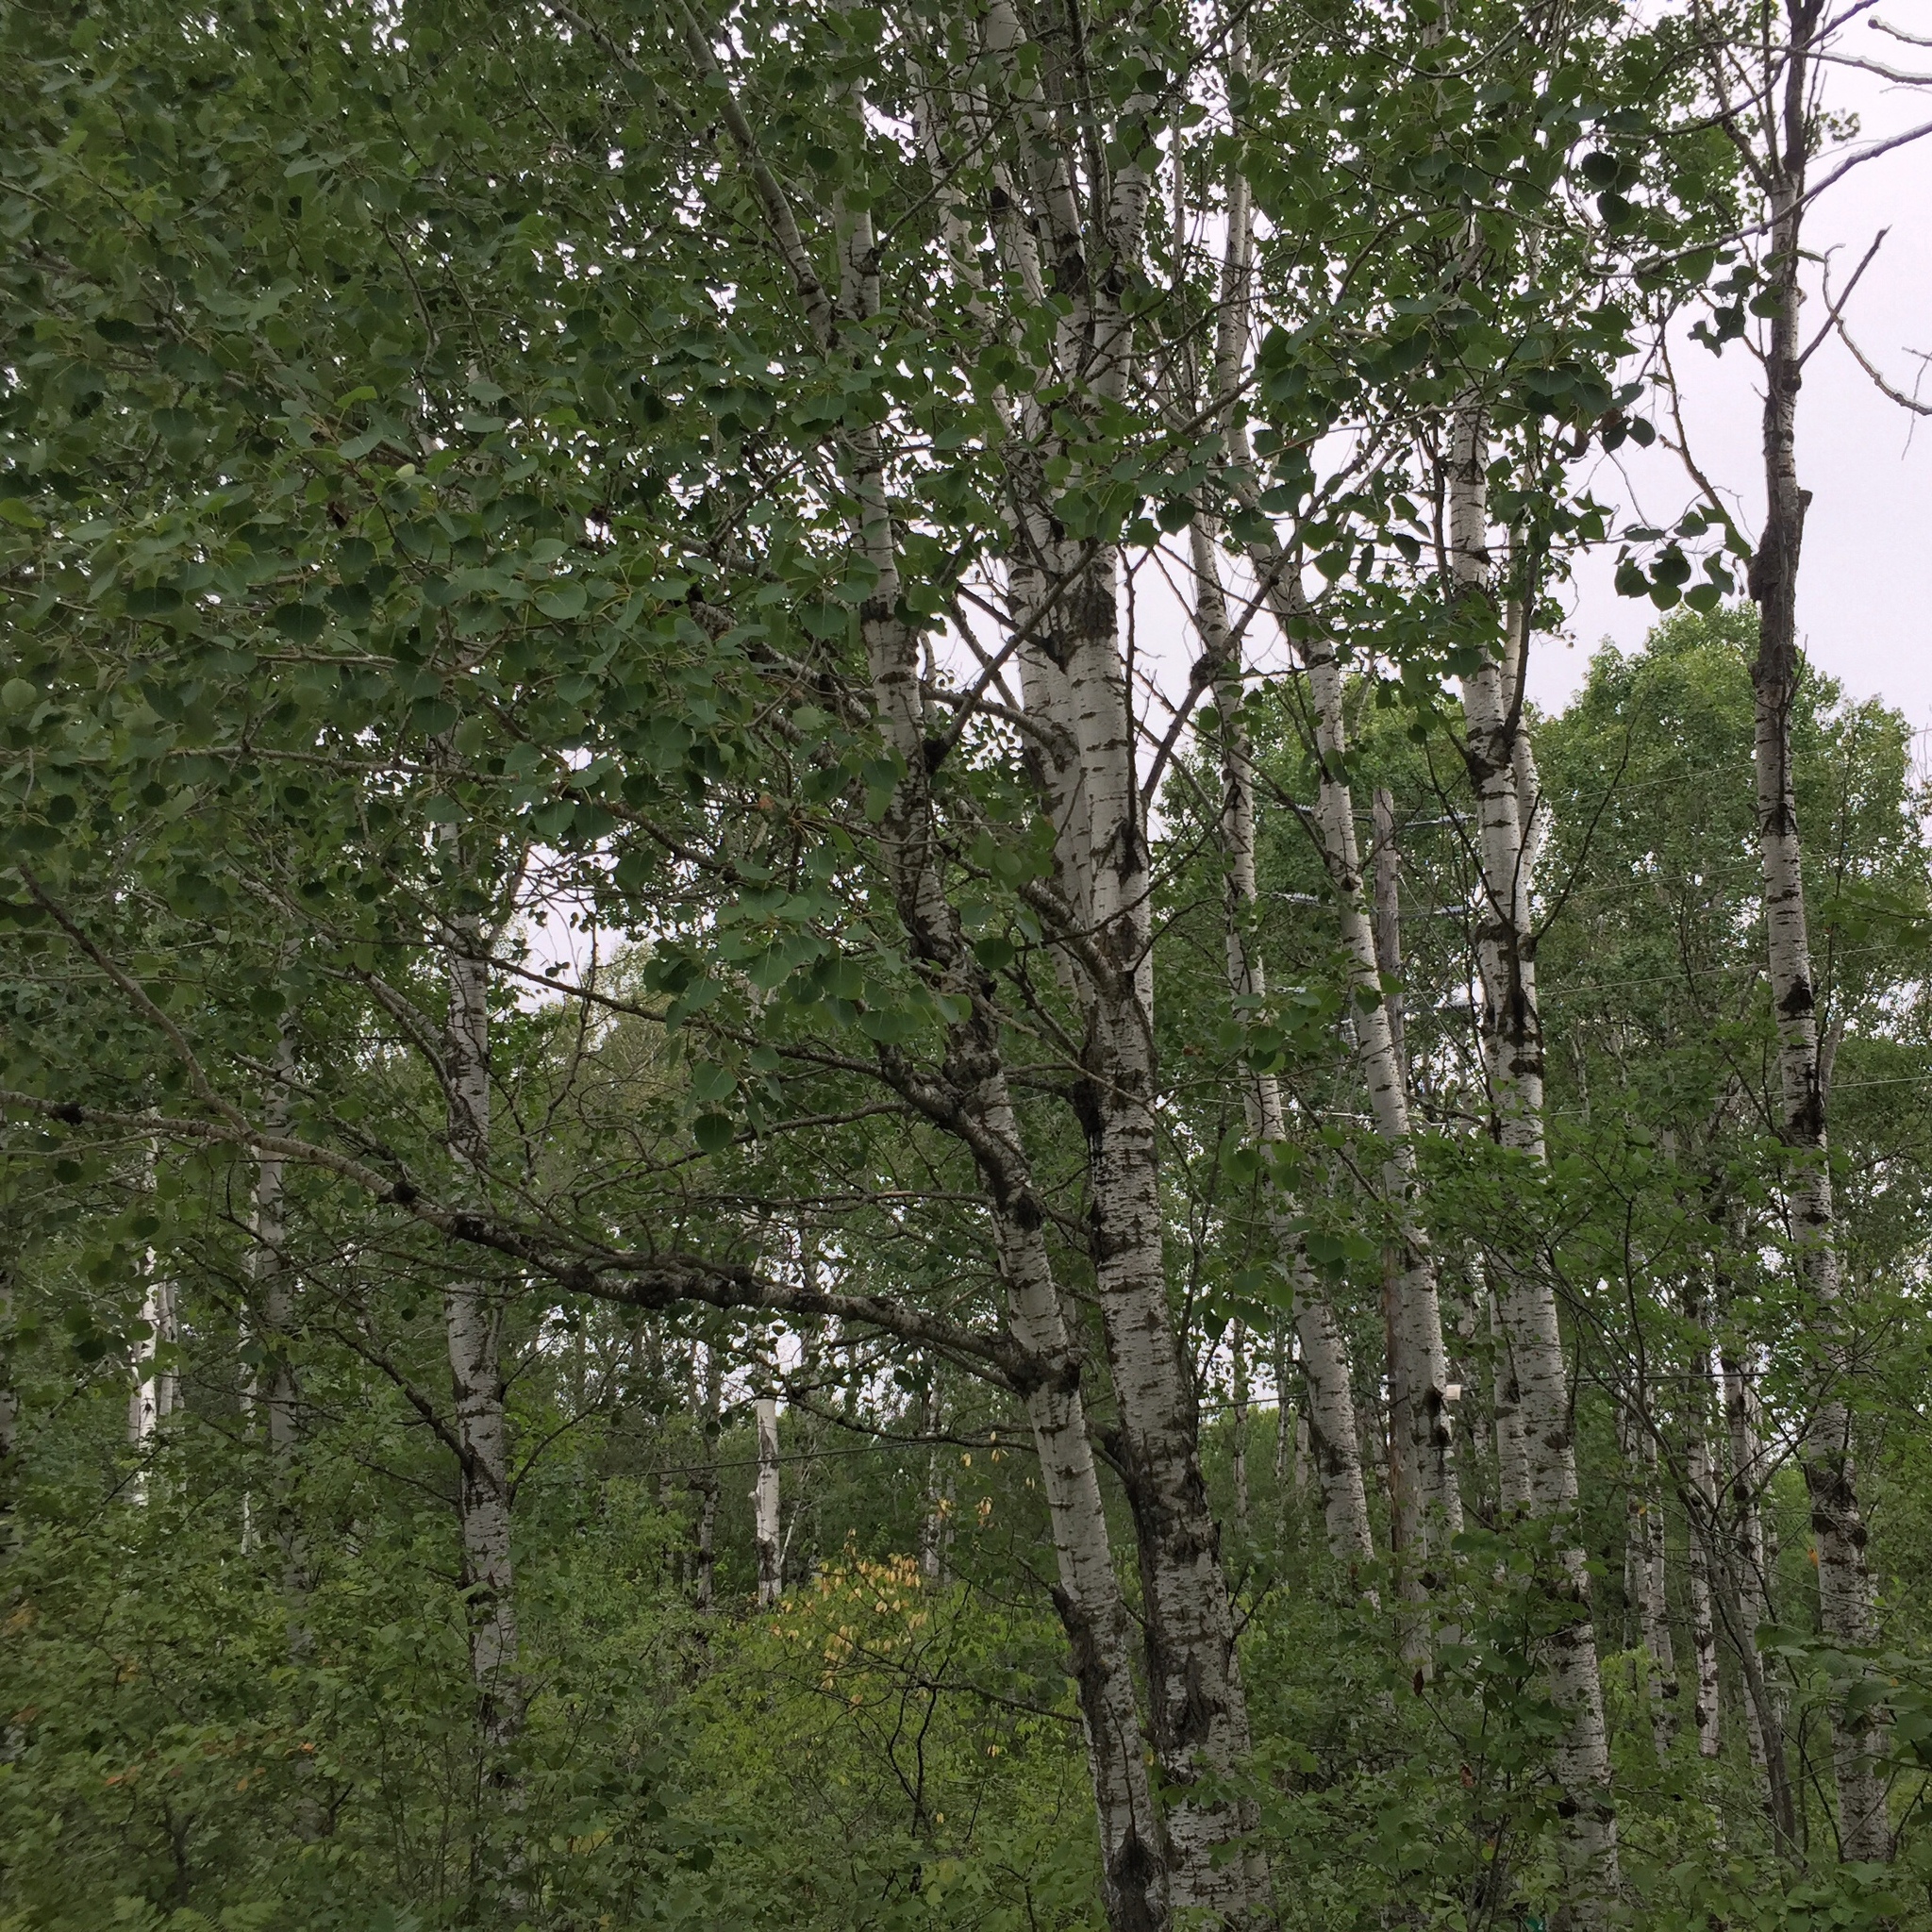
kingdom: Plantae
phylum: Tracheophyta
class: Magnoliopsida
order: Malpighiales
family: Salicaceae
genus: Populus
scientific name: Populus tremuloides
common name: Quaking aspen
